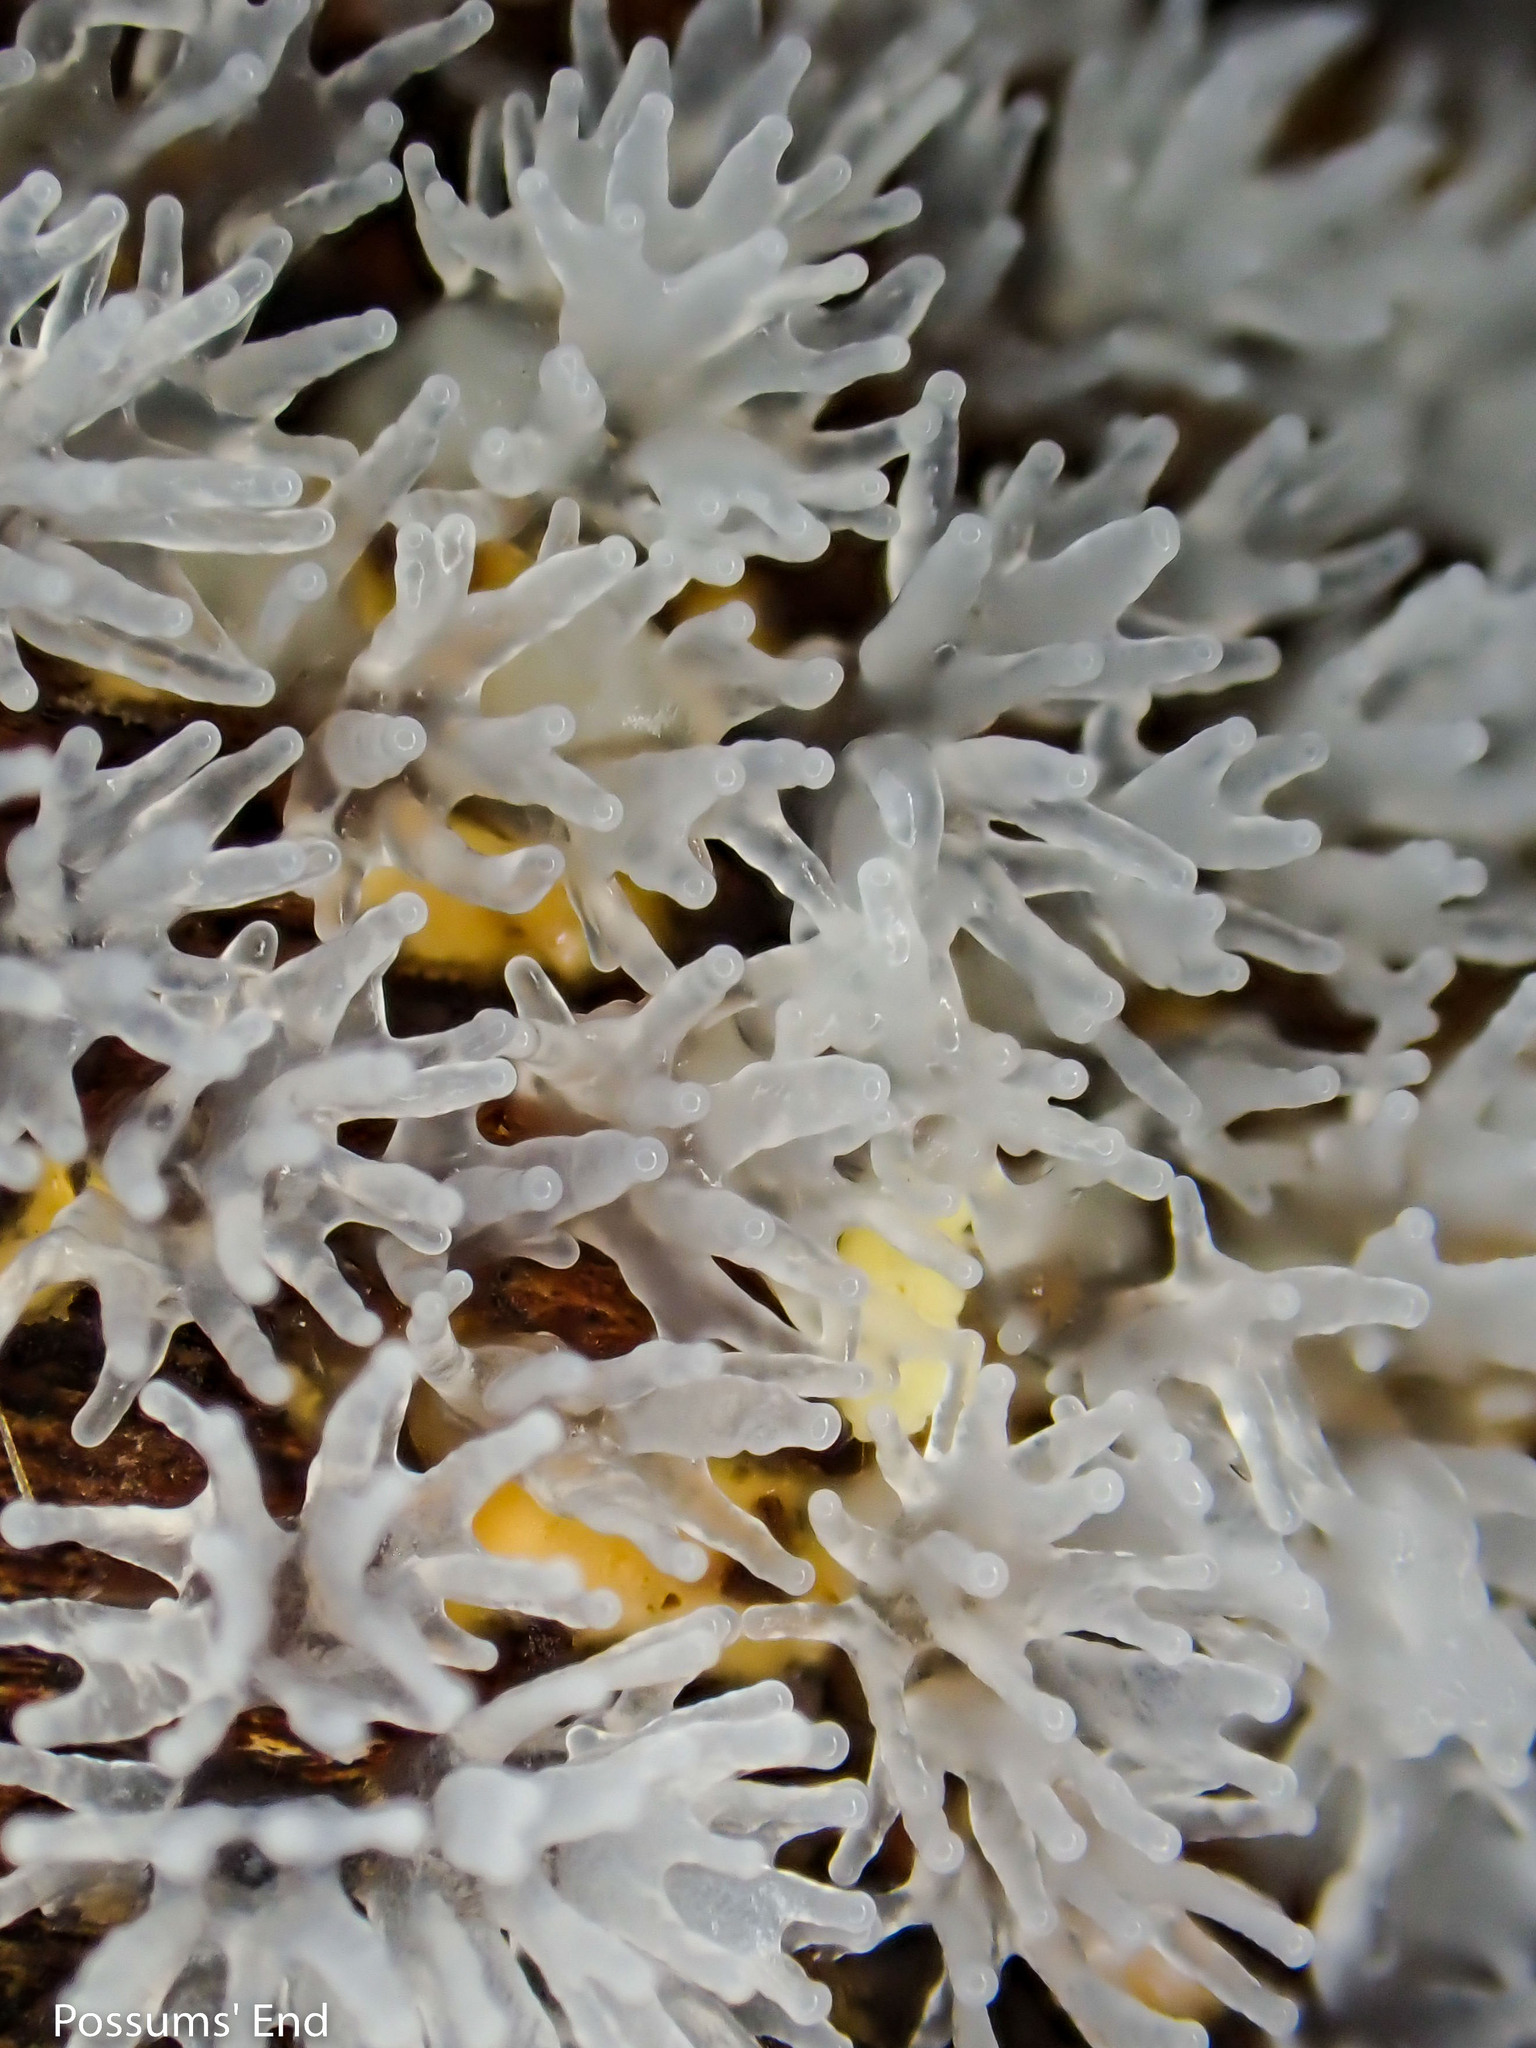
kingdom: Protozoa
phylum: Mycetozoa
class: Protosteliomycetes
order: Ceratiomyxales
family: Ceratiomyxaceae
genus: Ceratiomyxa
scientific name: Ceratiomyxa fruticulosa
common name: Honeycomb coral slime mold
